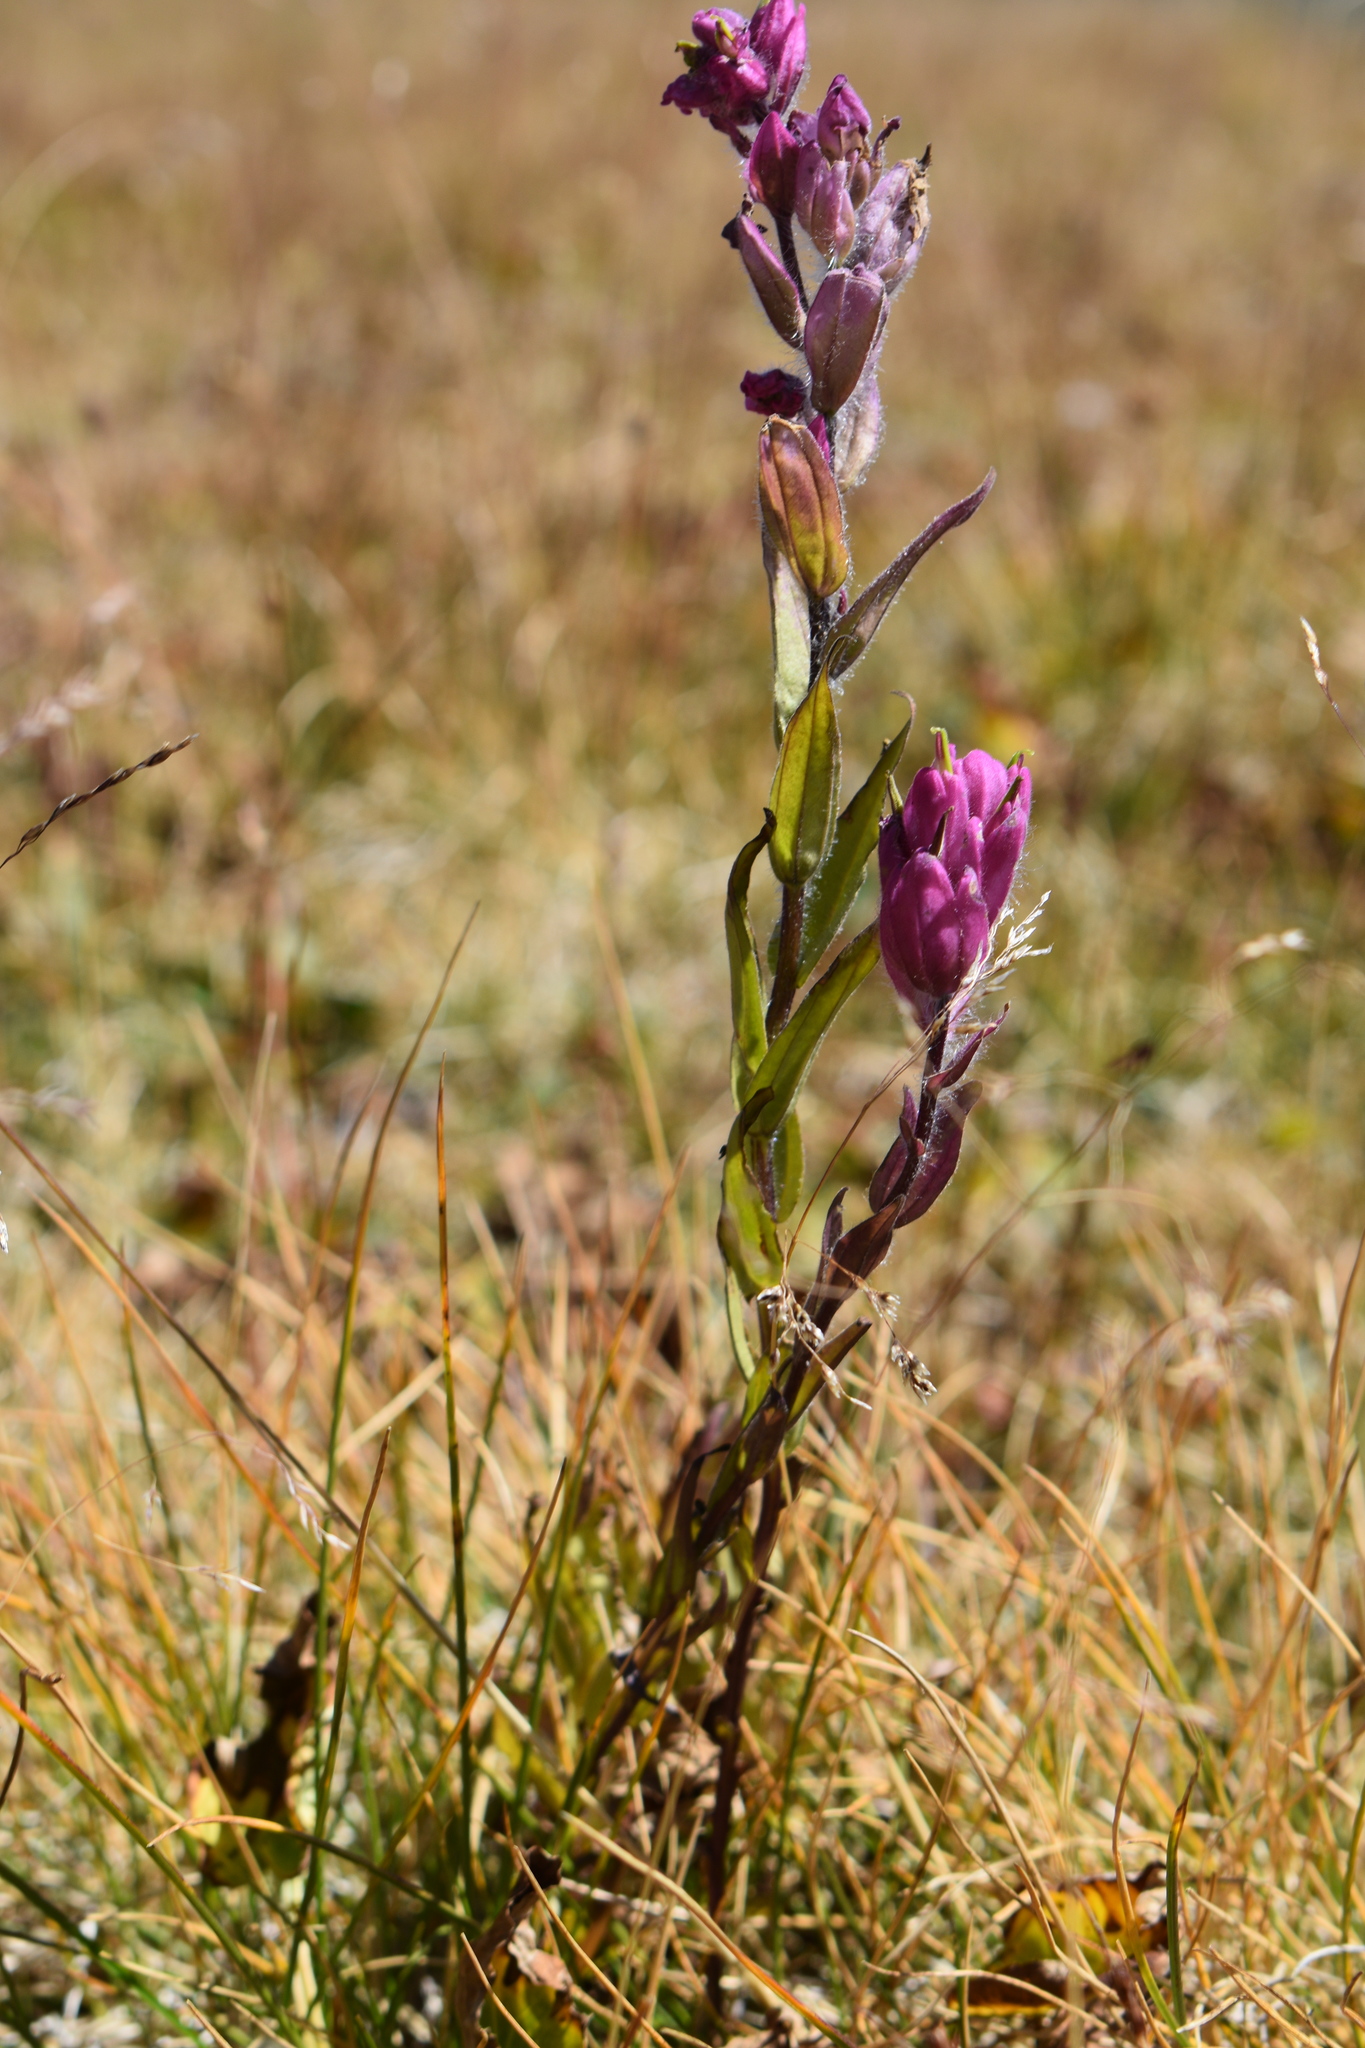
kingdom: Plantae
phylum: Tracheophyta
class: Magnoliopsida
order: Lamiales
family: Orobanchaceae
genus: Castilleja
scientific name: Castilleja rhexifolia
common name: Rocky mountain paintbrush
